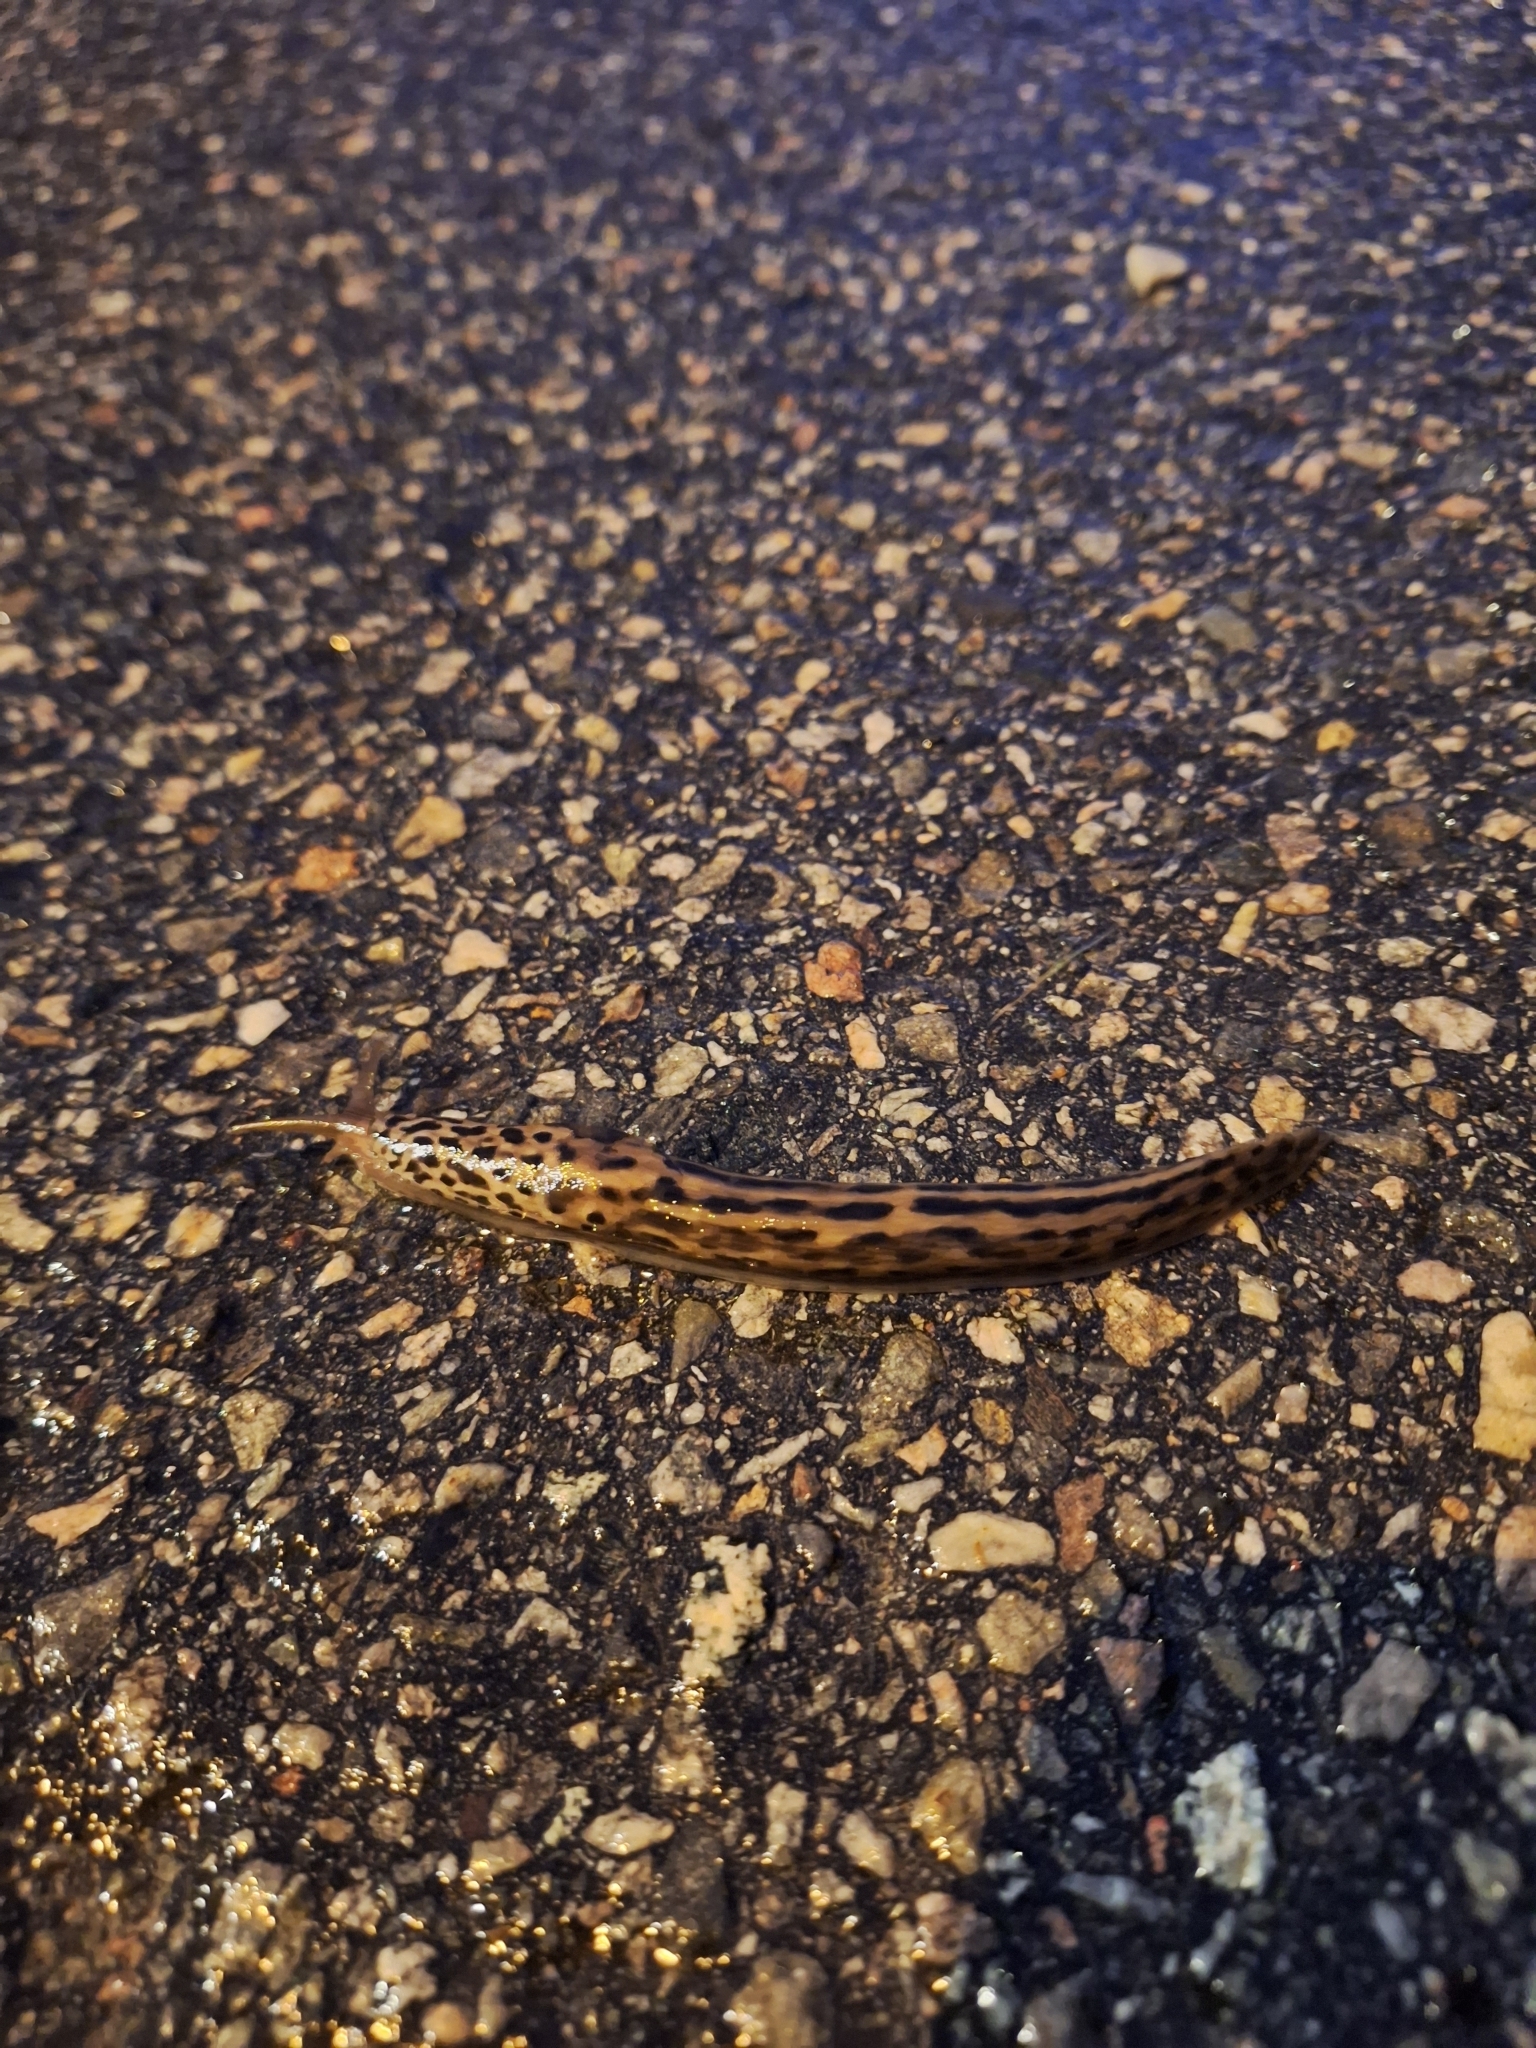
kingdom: Animalia
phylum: Mollusca
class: Gastropoda
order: Stylommatophora
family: Limacidae
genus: Limax
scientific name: Limax maximus
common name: Great grey slug
